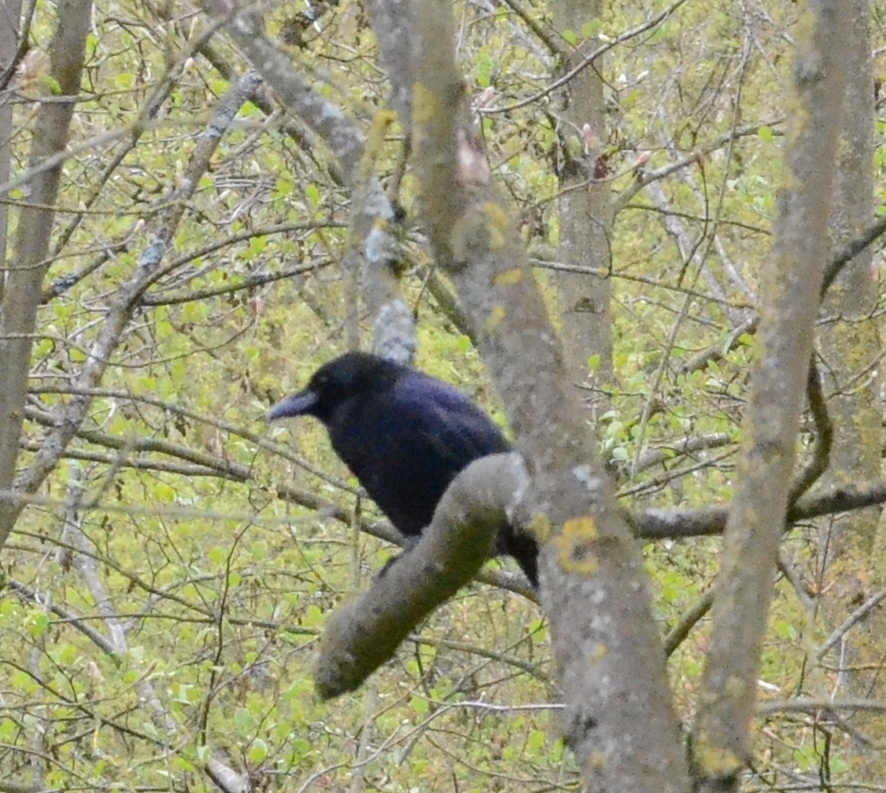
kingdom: Animalia
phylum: Chordata
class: Aves
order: Passeriformes
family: Corvidae
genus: Corvus
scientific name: Corvus corone
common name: Carrion crow
